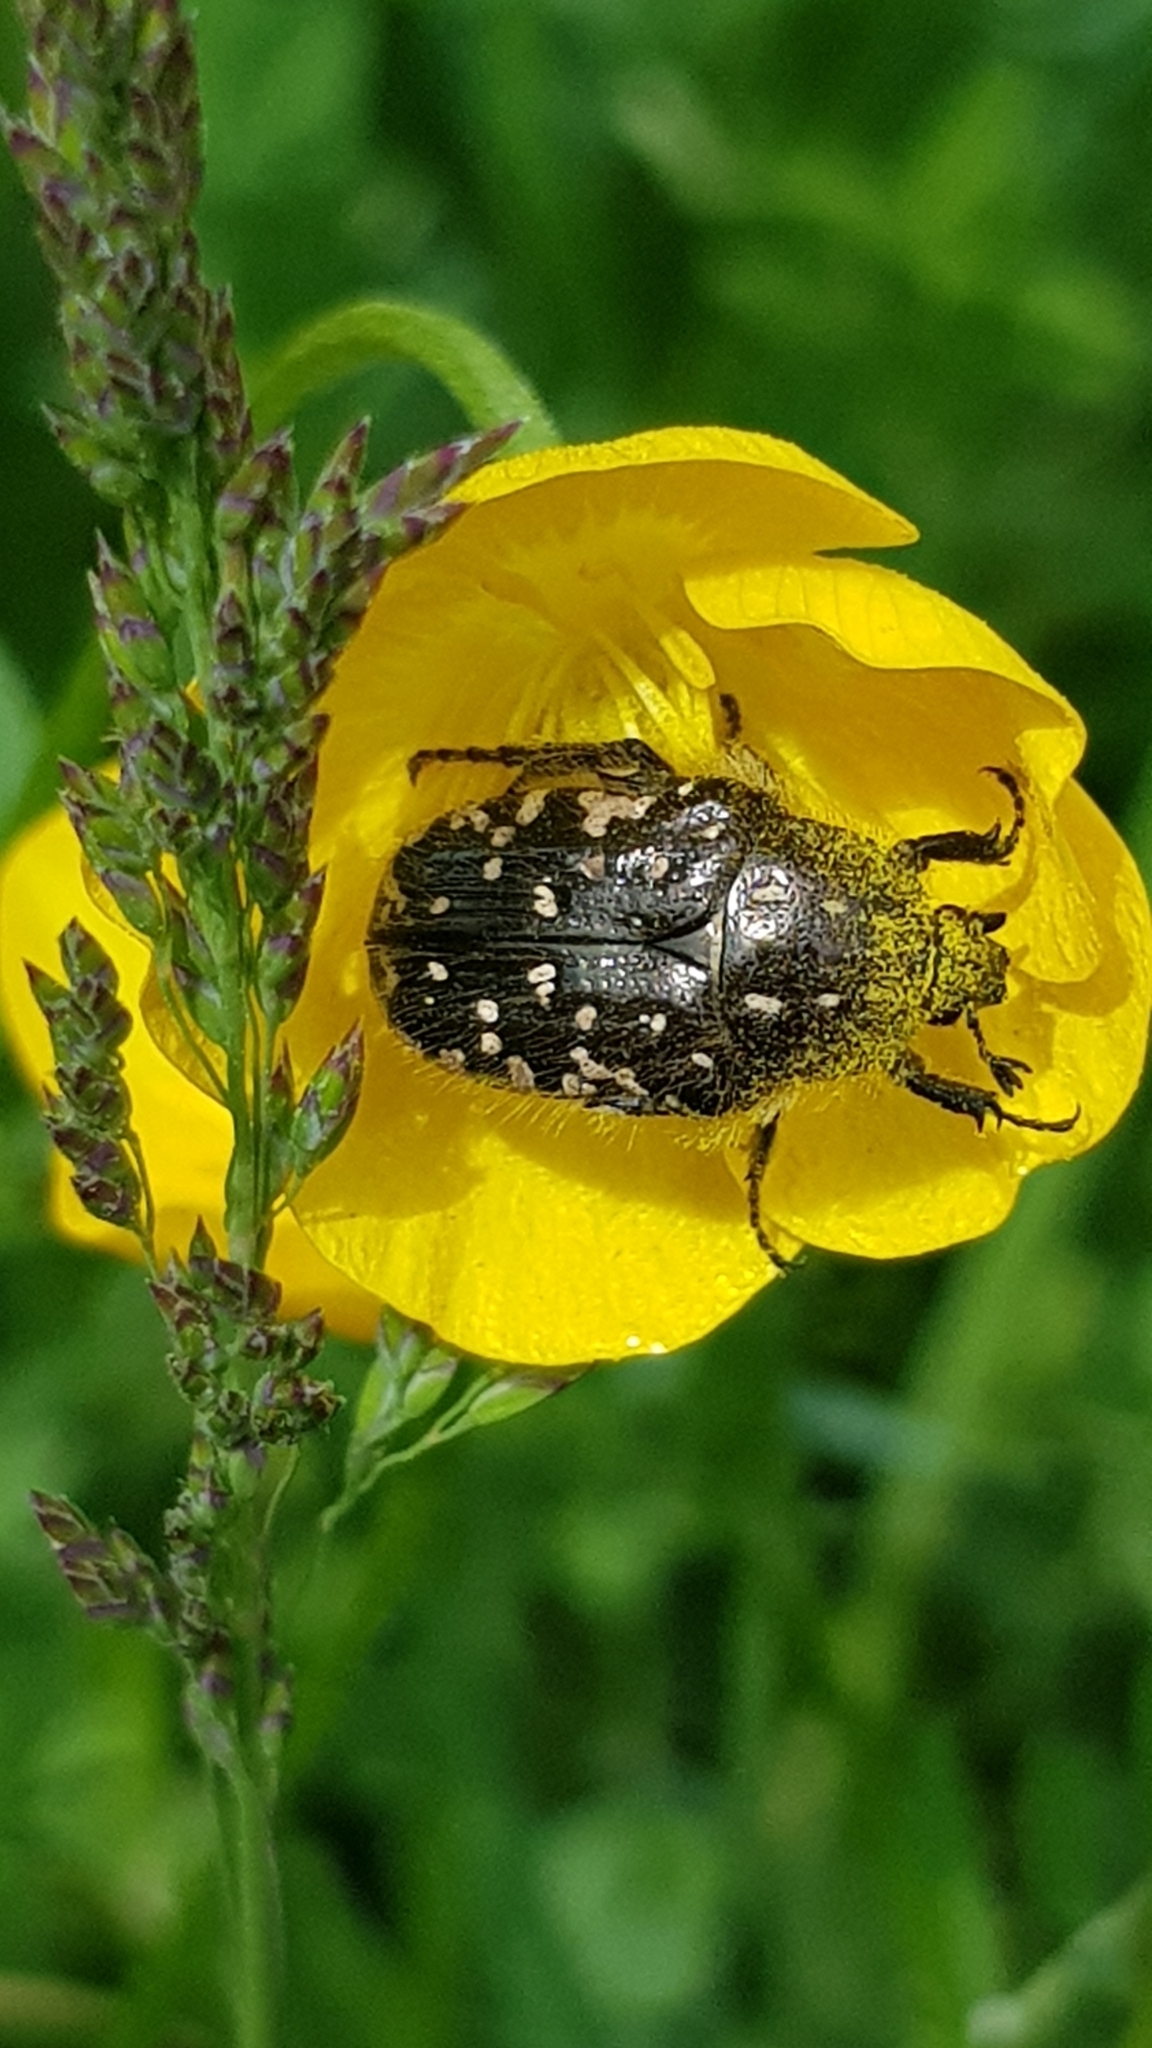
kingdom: Animalia
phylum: Arthropoda
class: Insecta
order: Coleoptera
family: Scarabaeidae
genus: Oxythyrea
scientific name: Oxythyrea funesta
